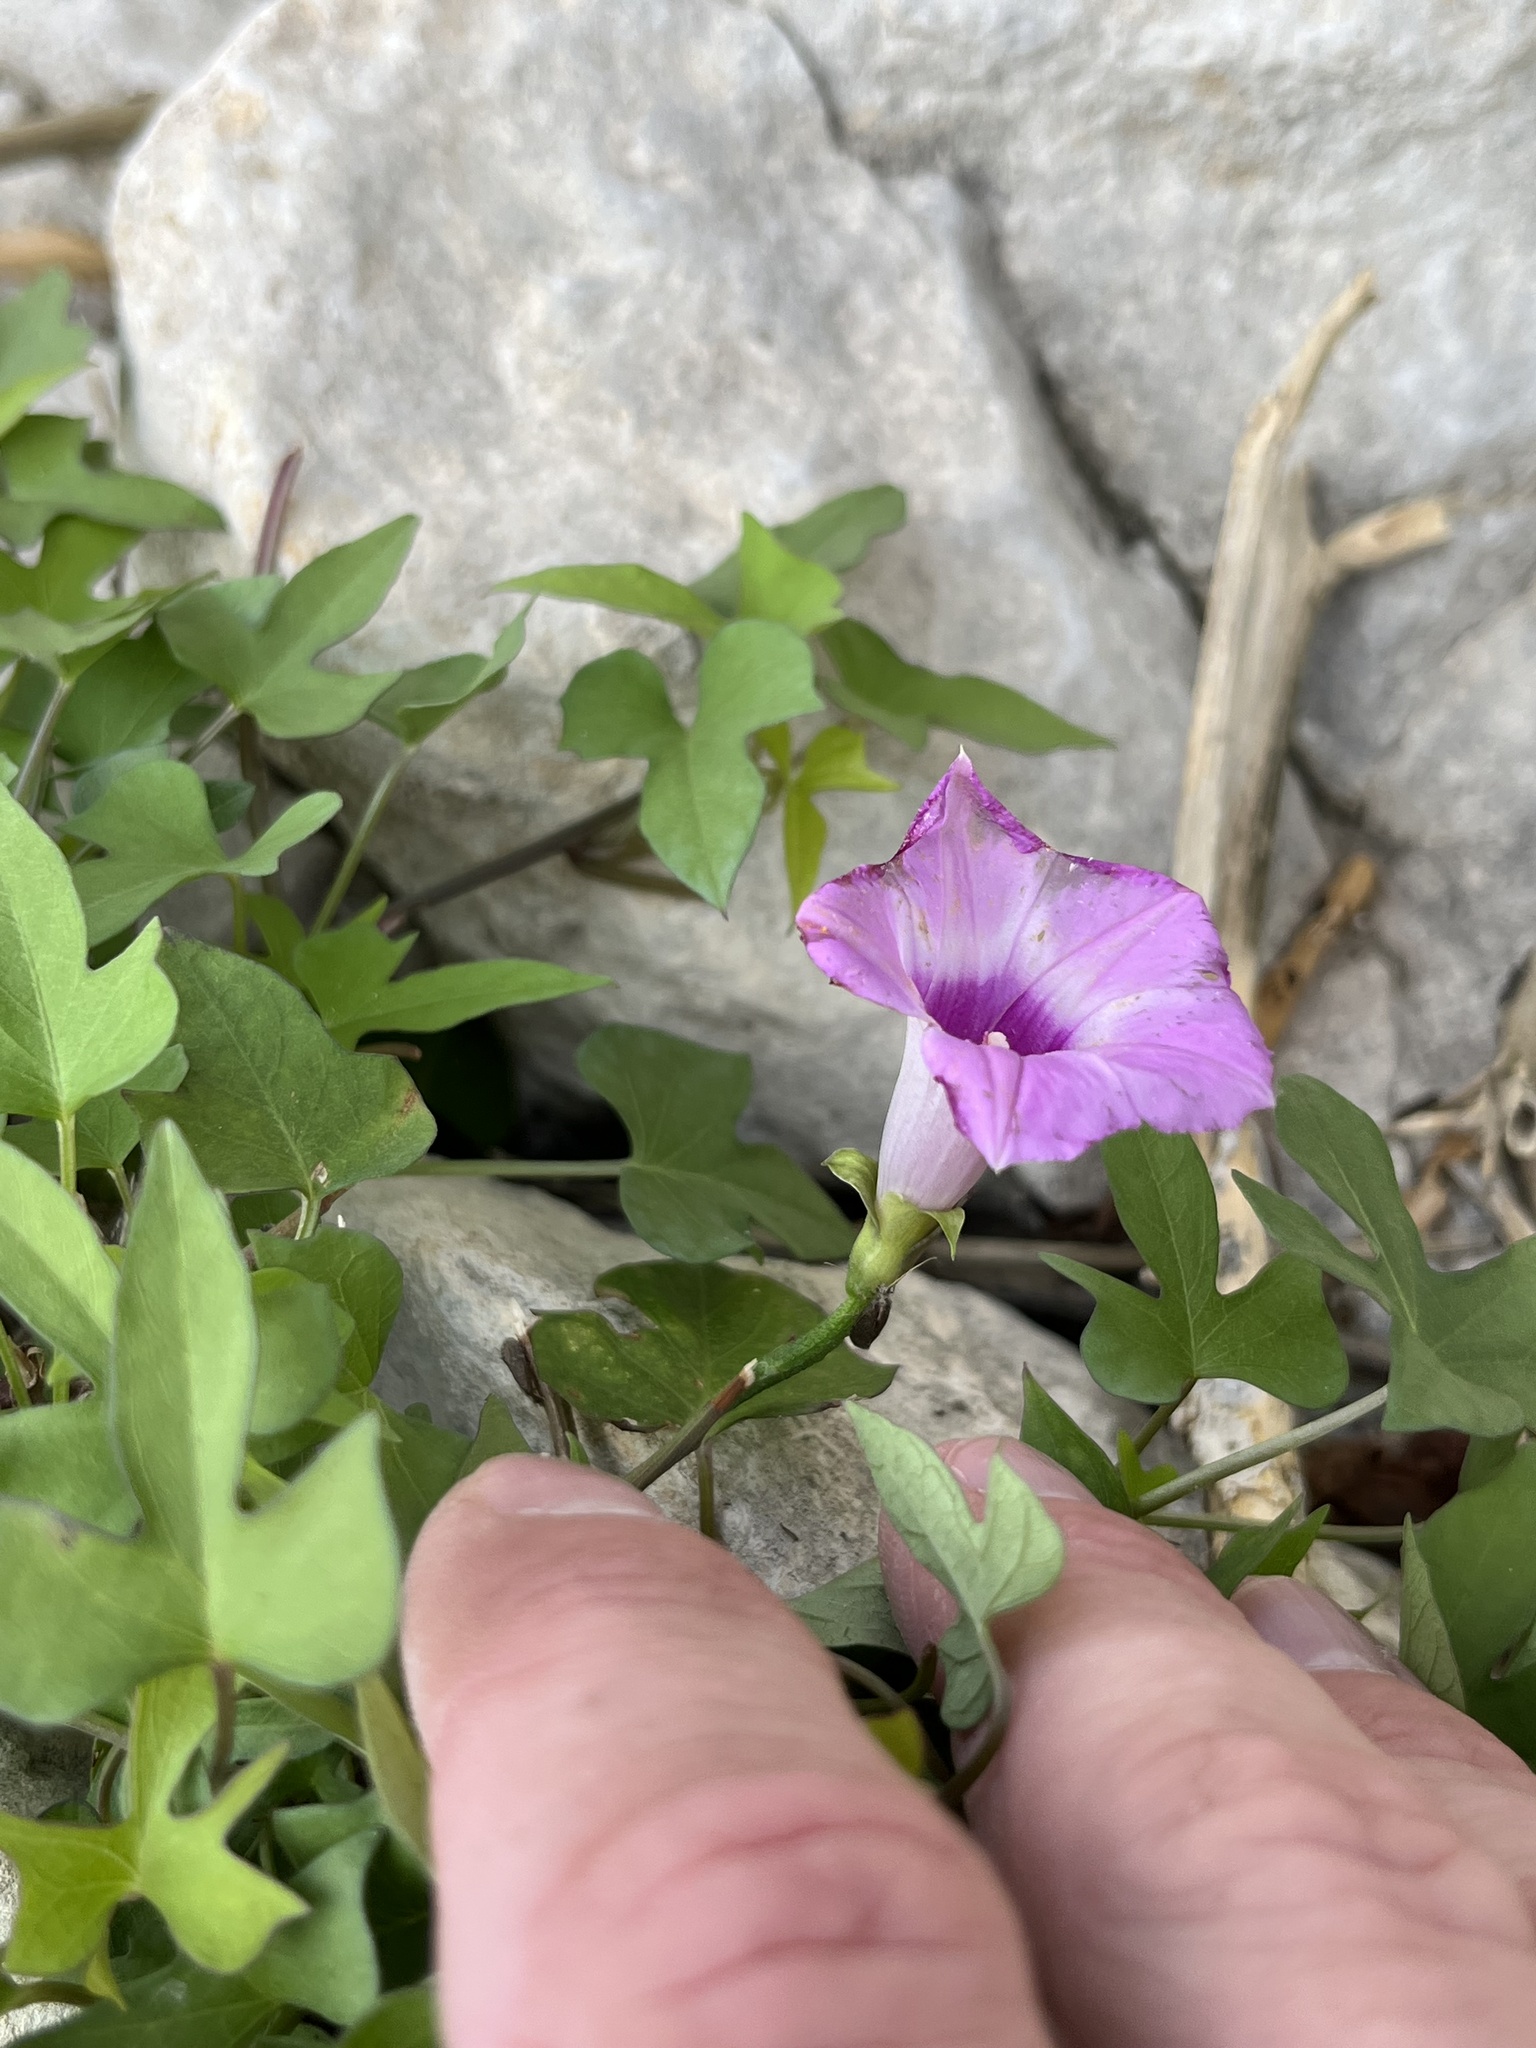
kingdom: Plantae
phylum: Tracheophyta
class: Magnoliopsida
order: Solanales
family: Convolvulaceae
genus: Ipomoea
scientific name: Ipomoea cordatotriloba
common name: Cotton morning glory
